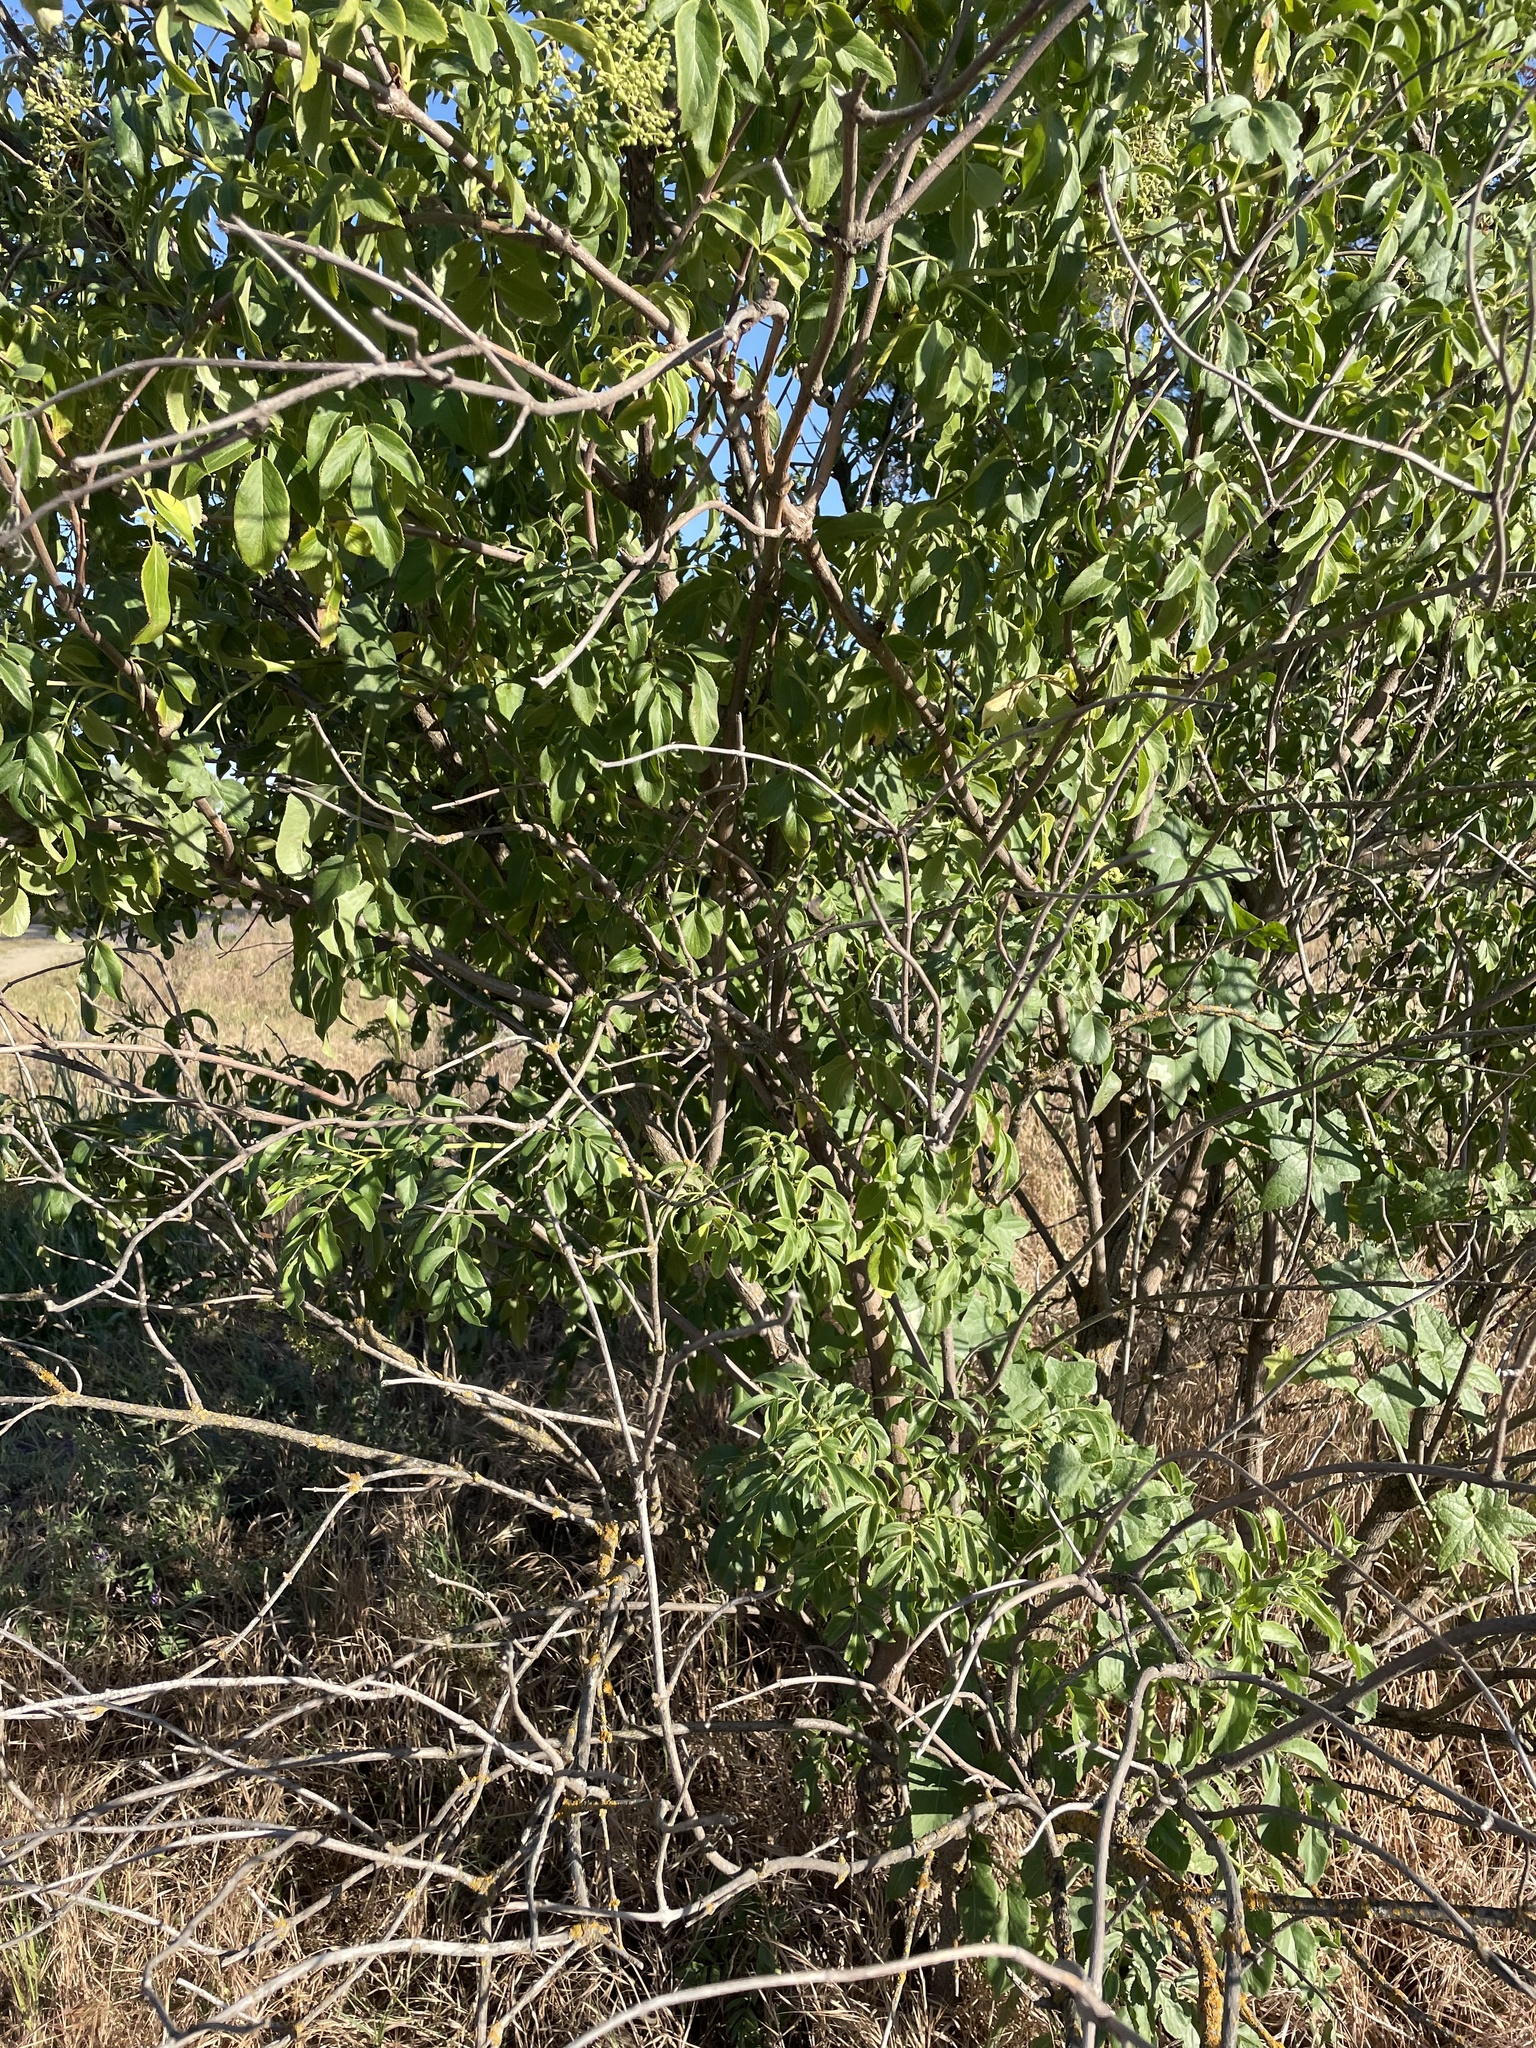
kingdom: Plantae
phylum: Tracheophyta
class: Magnoliopsida
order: Dipsacales
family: Viburnaceae
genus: Sambucus
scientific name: Sambucus cerulea
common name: Blue elder
